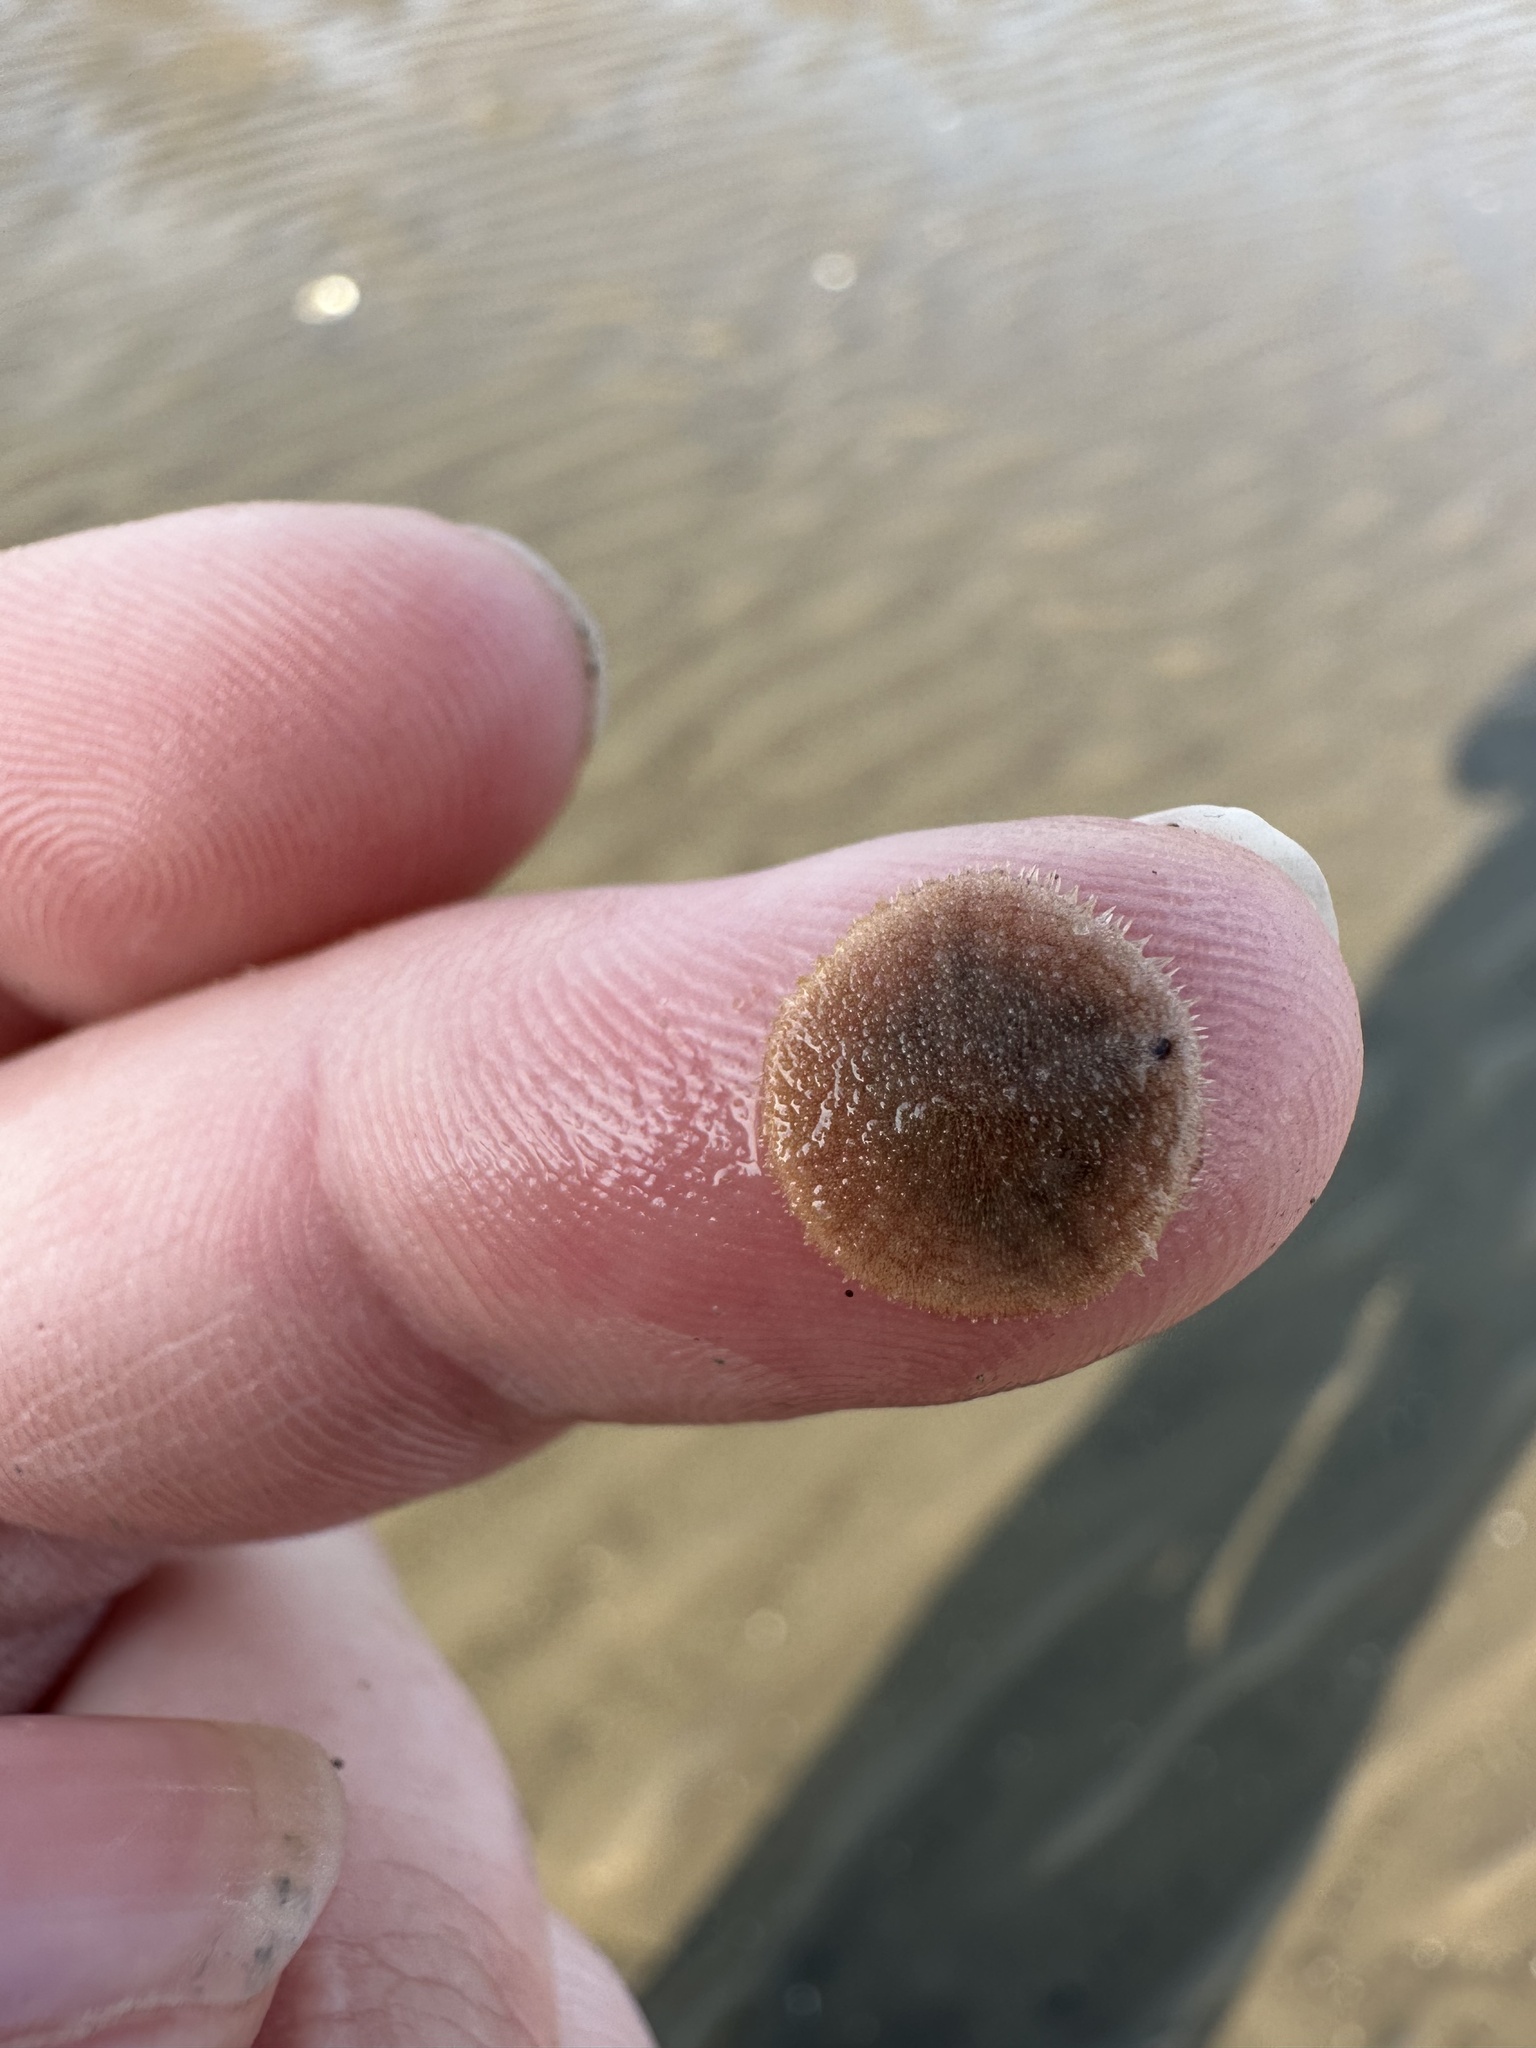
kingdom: Animalia
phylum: Echinodermata
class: Echinoidea
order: Echinolampadacea
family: Echinarachniidae
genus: Echinarachnius
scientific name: Echinarachnius parma
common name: Common sand dollar
